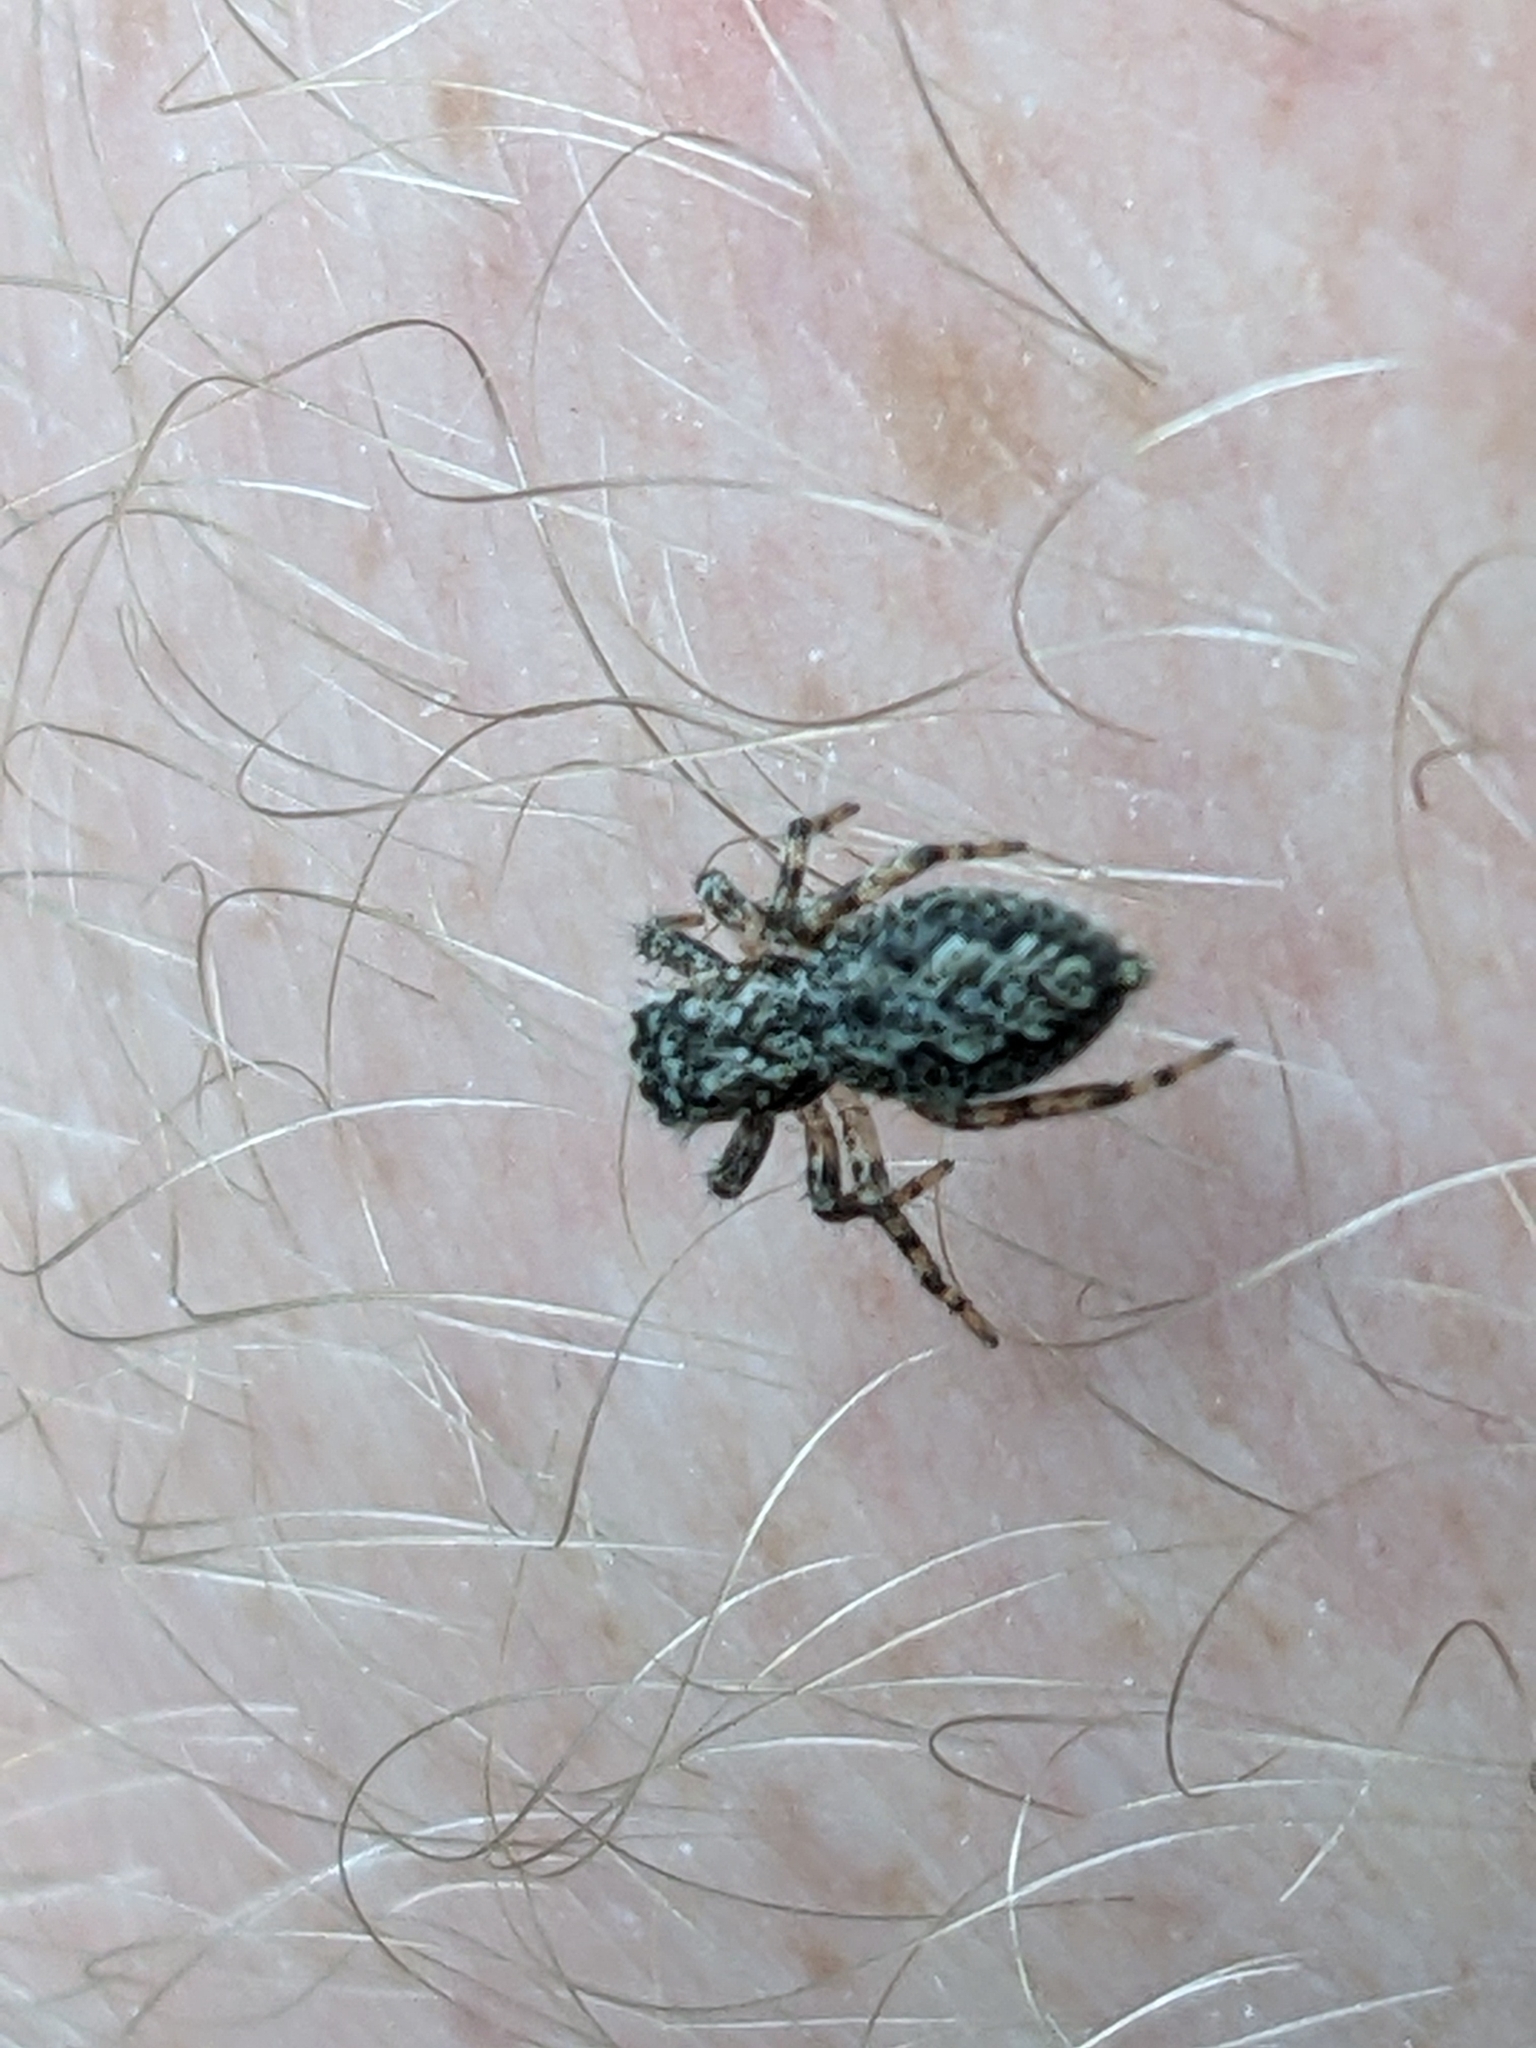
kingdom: Animalia
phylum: Arthropoda
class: Arachnida
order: Araneae
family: Salticidae
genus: Platycryptus
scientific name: Platycryptus undatus
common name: Tan jumping spider
